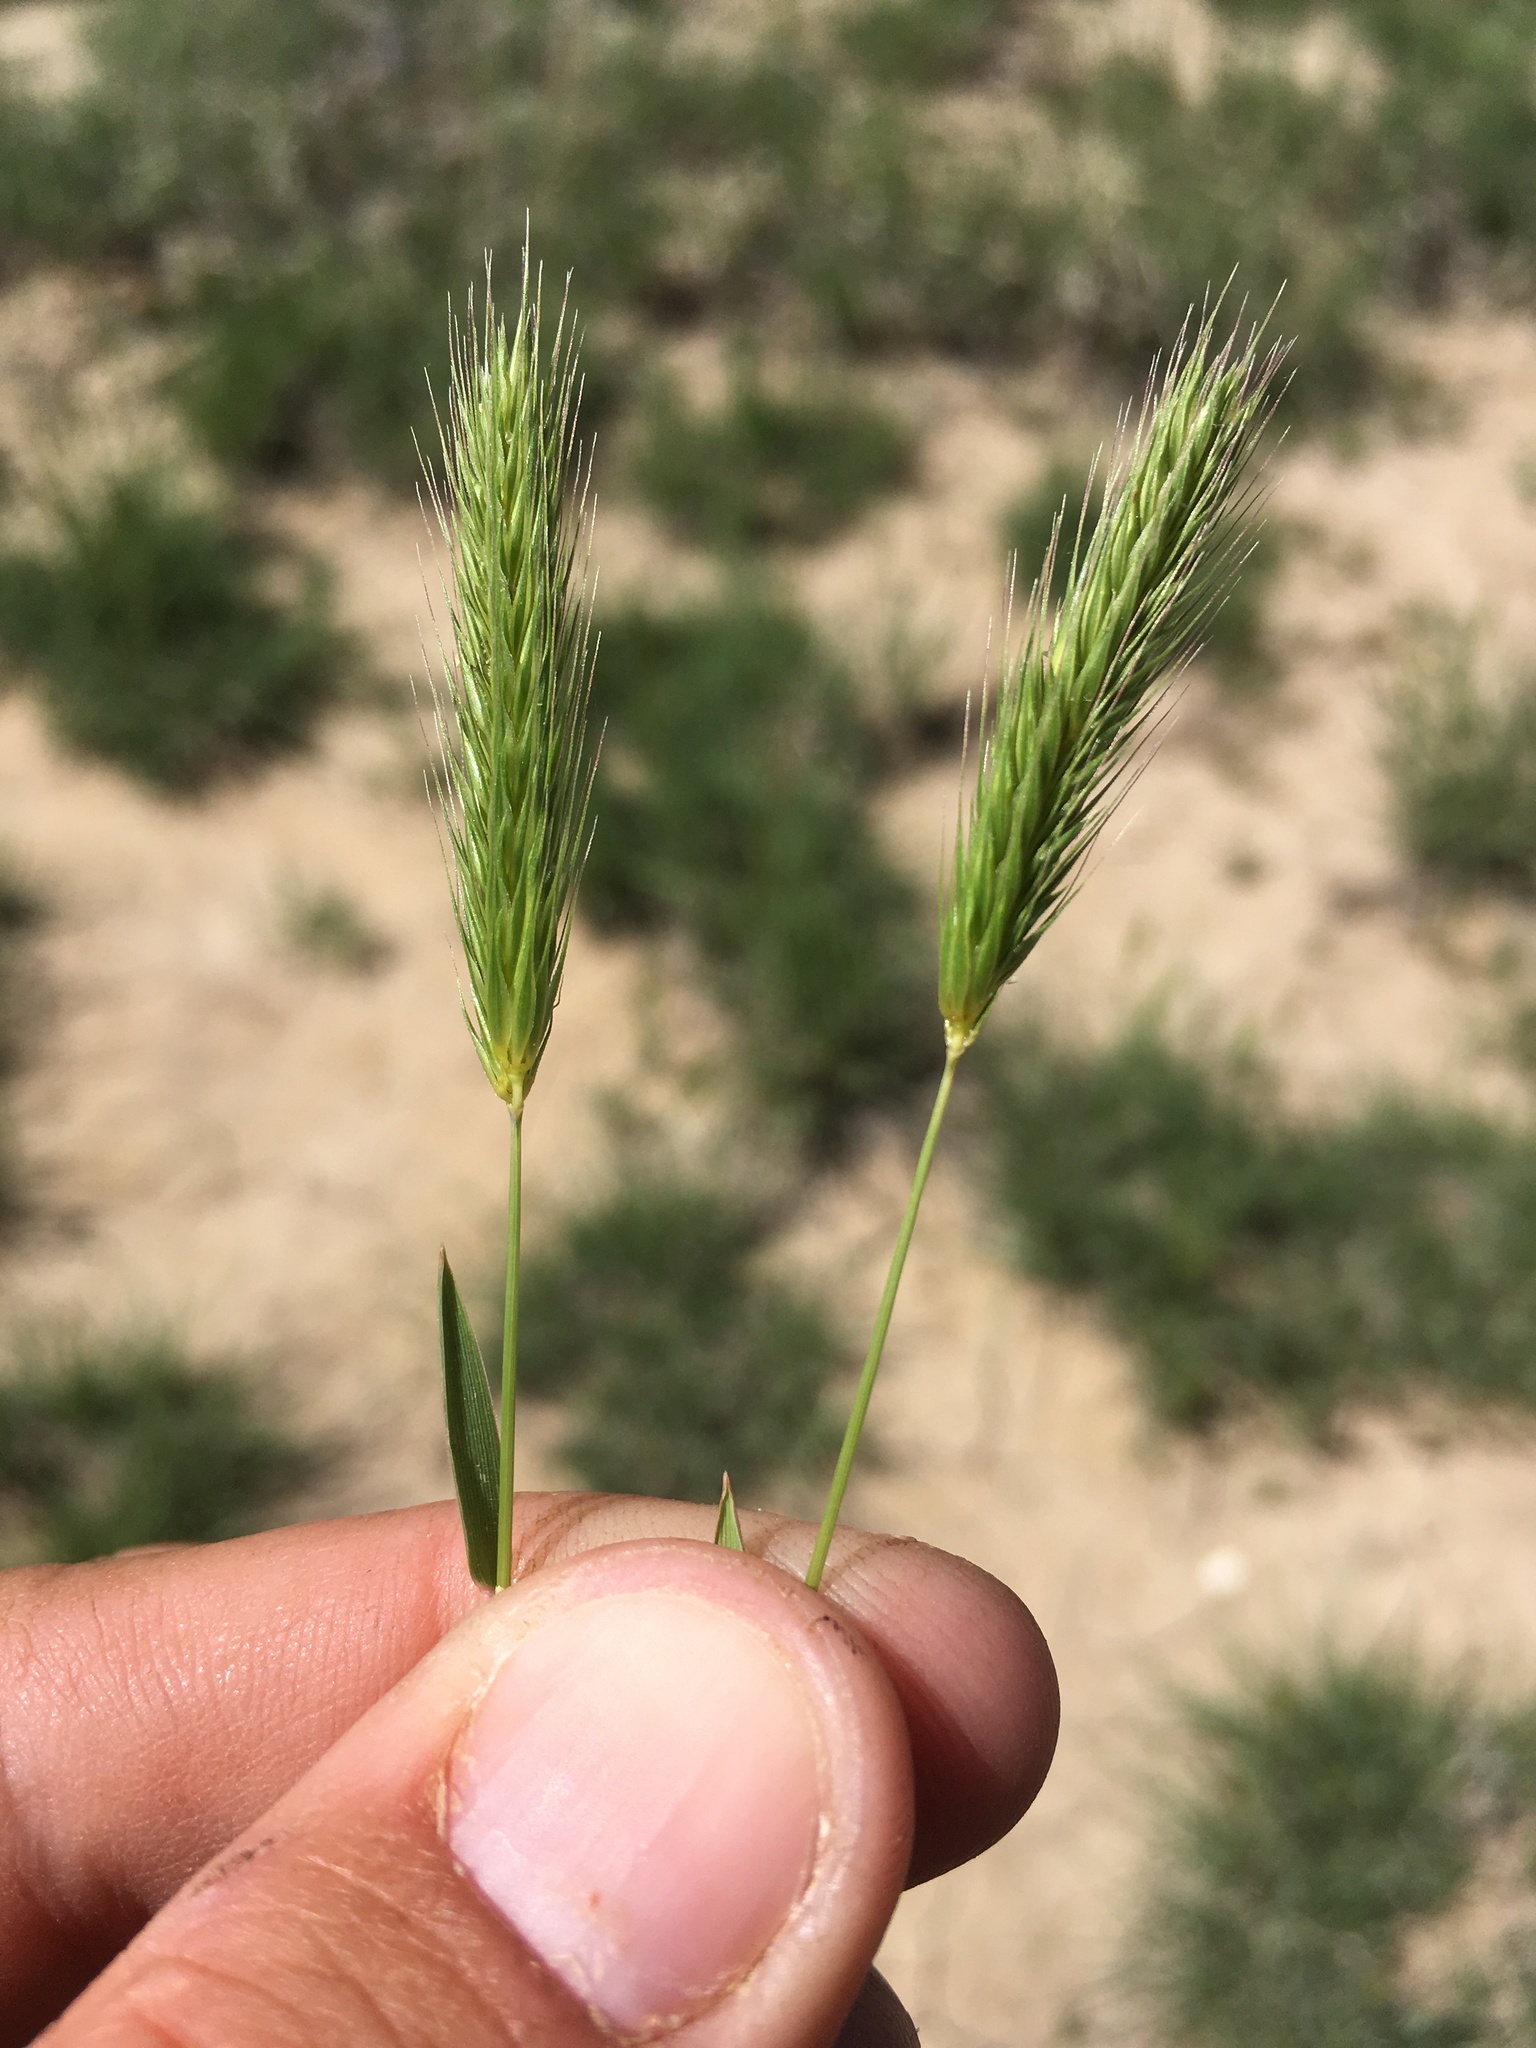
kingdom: Plantae
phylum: Tracheophyta
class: Liliopsida
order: Poales
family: Poaceae
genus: Hordeum
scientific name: Hordeum pusillum
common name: Little barley
